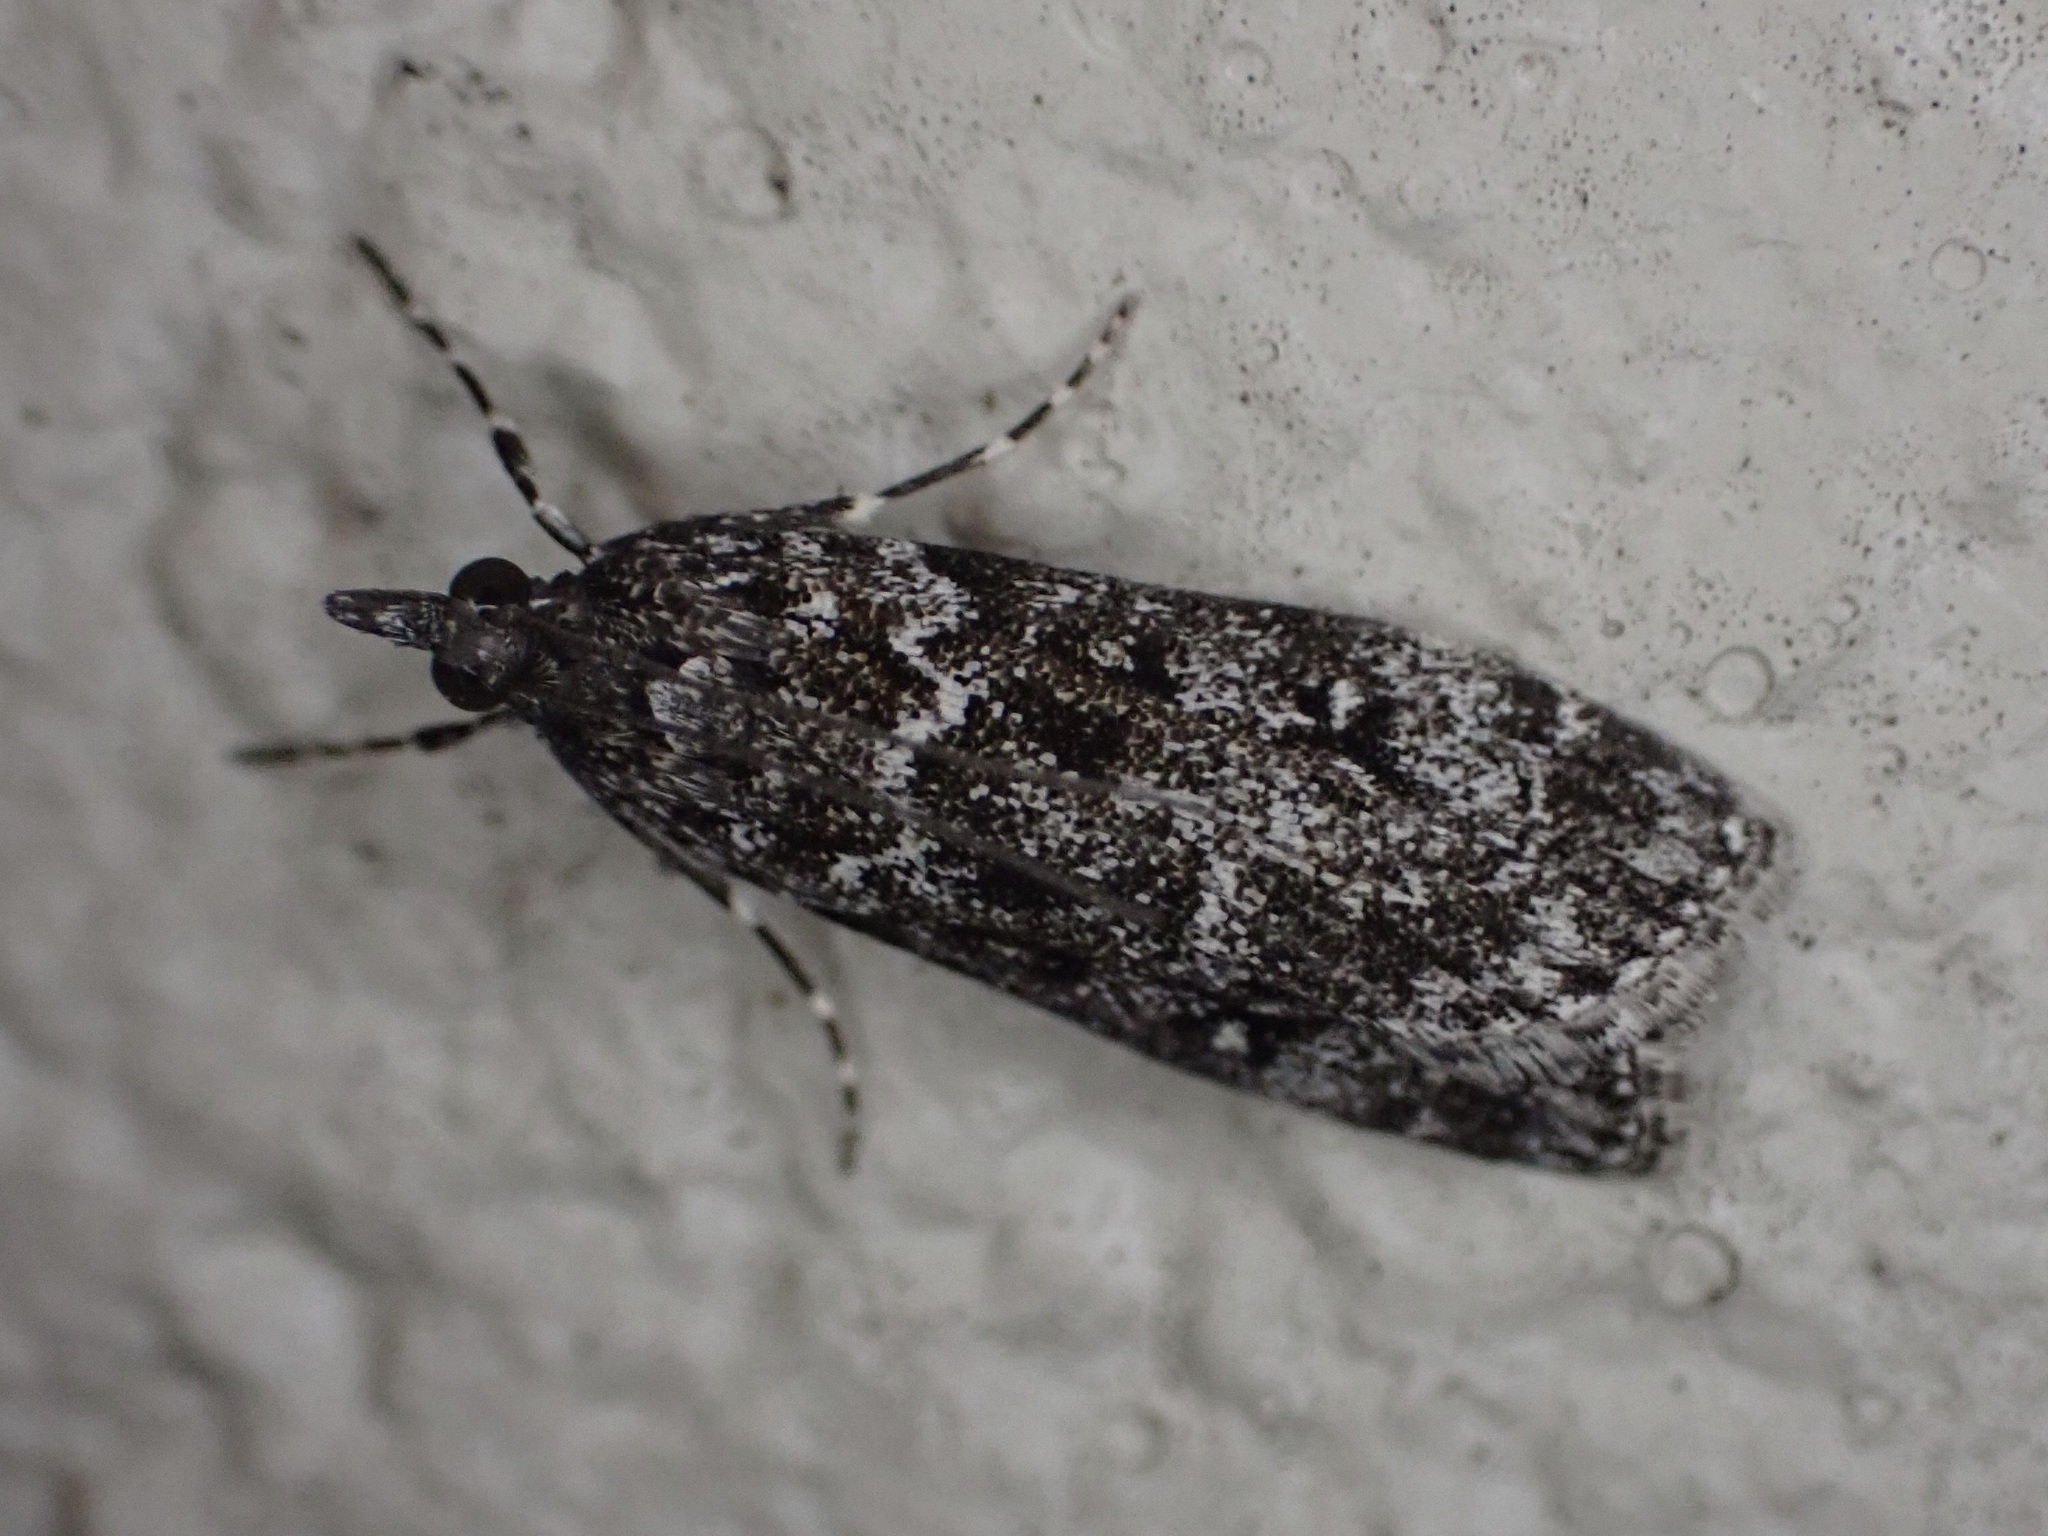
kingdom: Animalia
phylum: Arthropoda
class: Insecta
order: Lepidoptera
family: Crambidae
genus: Eudonia
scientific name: Eudonia philerga
